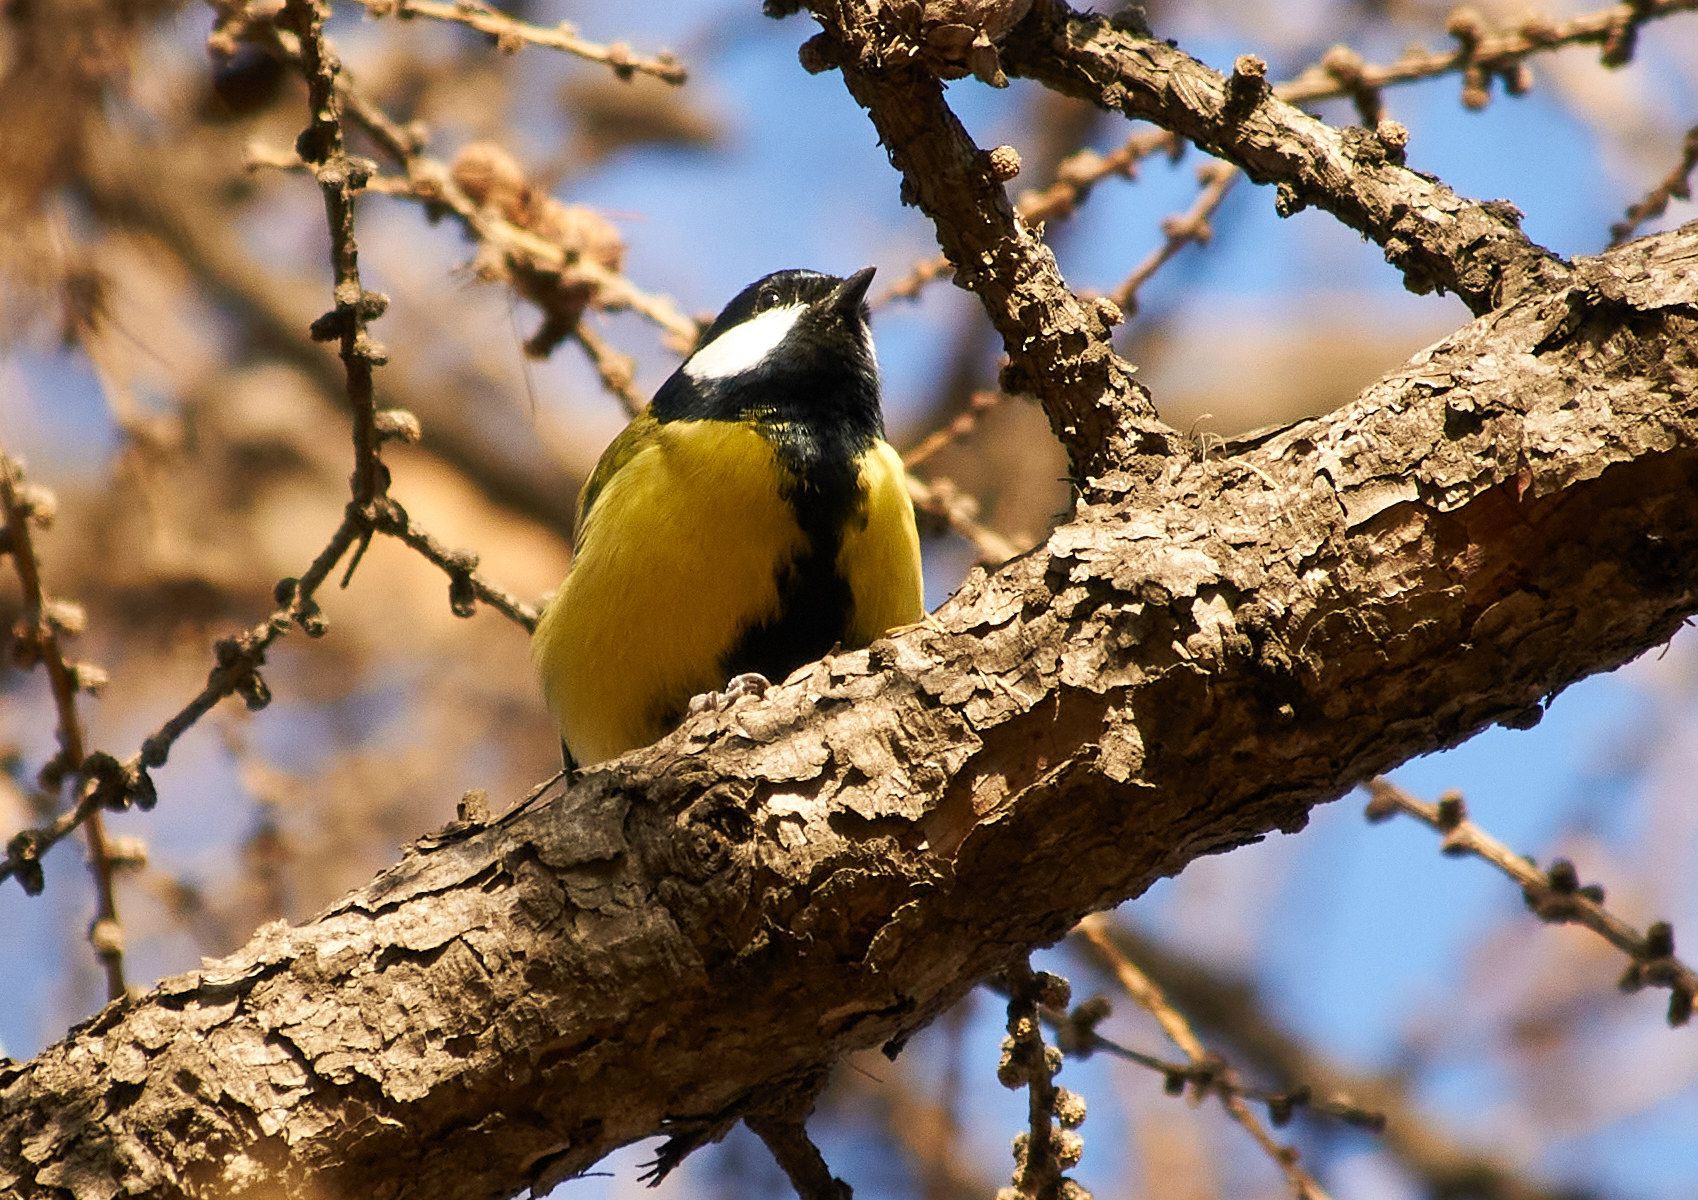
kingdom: Animalia
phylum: Chordata
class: Aves
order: Passeriformes
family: Paridae
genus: Parus
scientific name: Parus major
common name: Great tit
